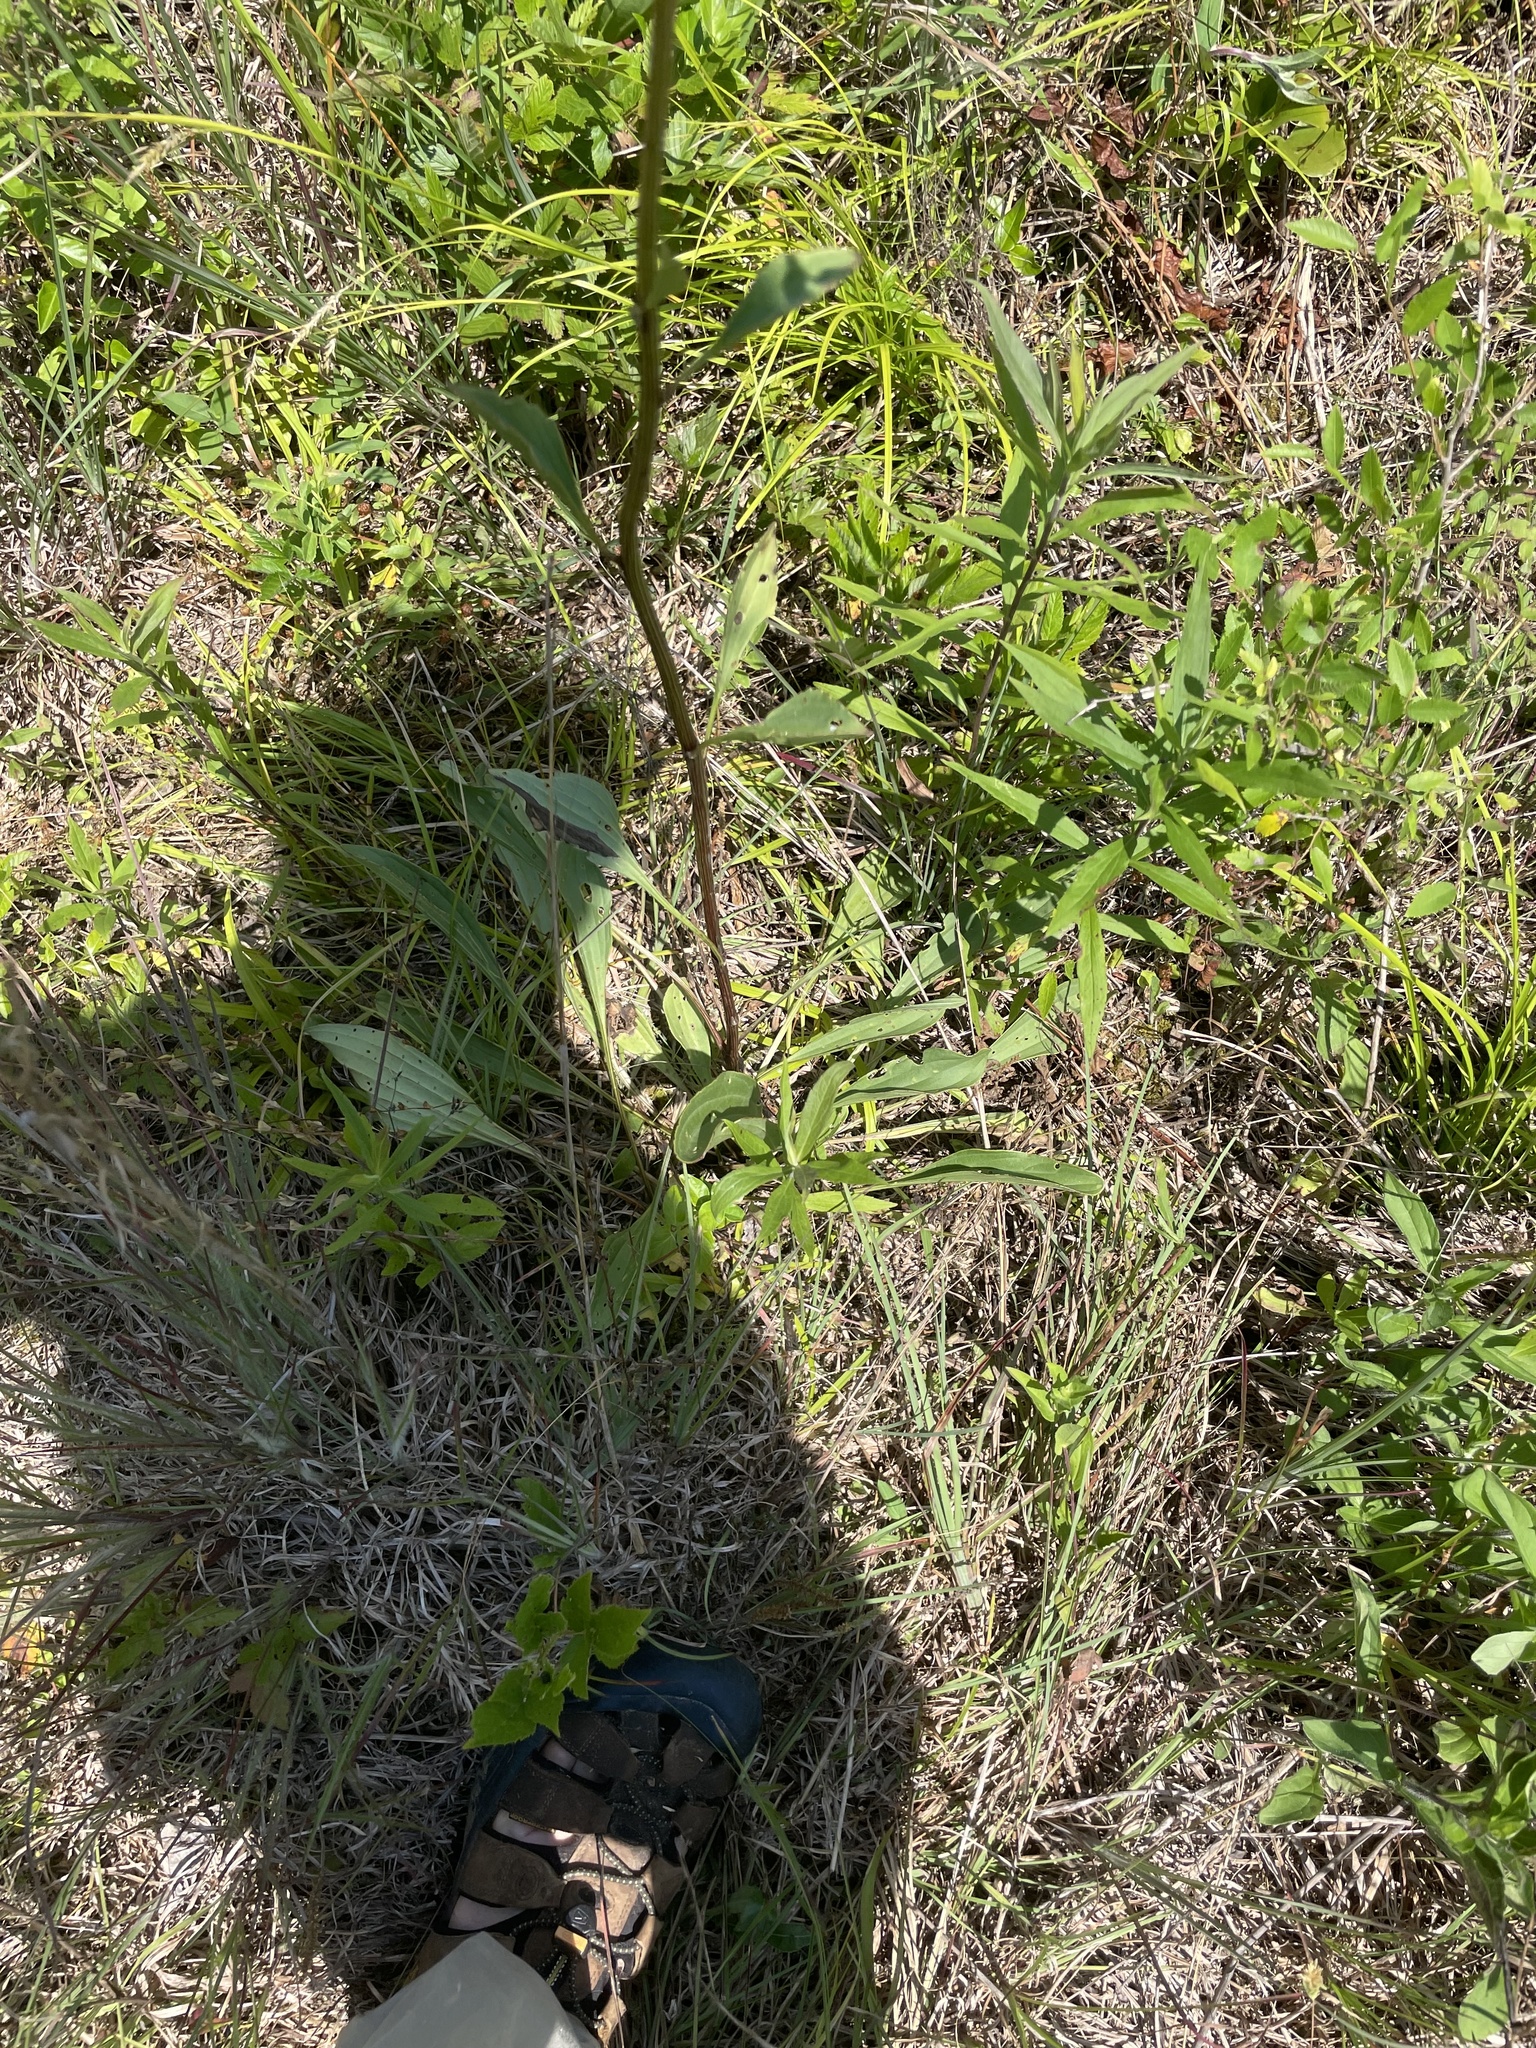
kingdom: Plantae
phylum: Tracheophyta
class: Magnoliopsida
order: Asterales
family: Asteraceae
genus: Arnoglossum
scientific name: Arnoglossum plantagineum
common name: Groove-stemmed indian-plantain
